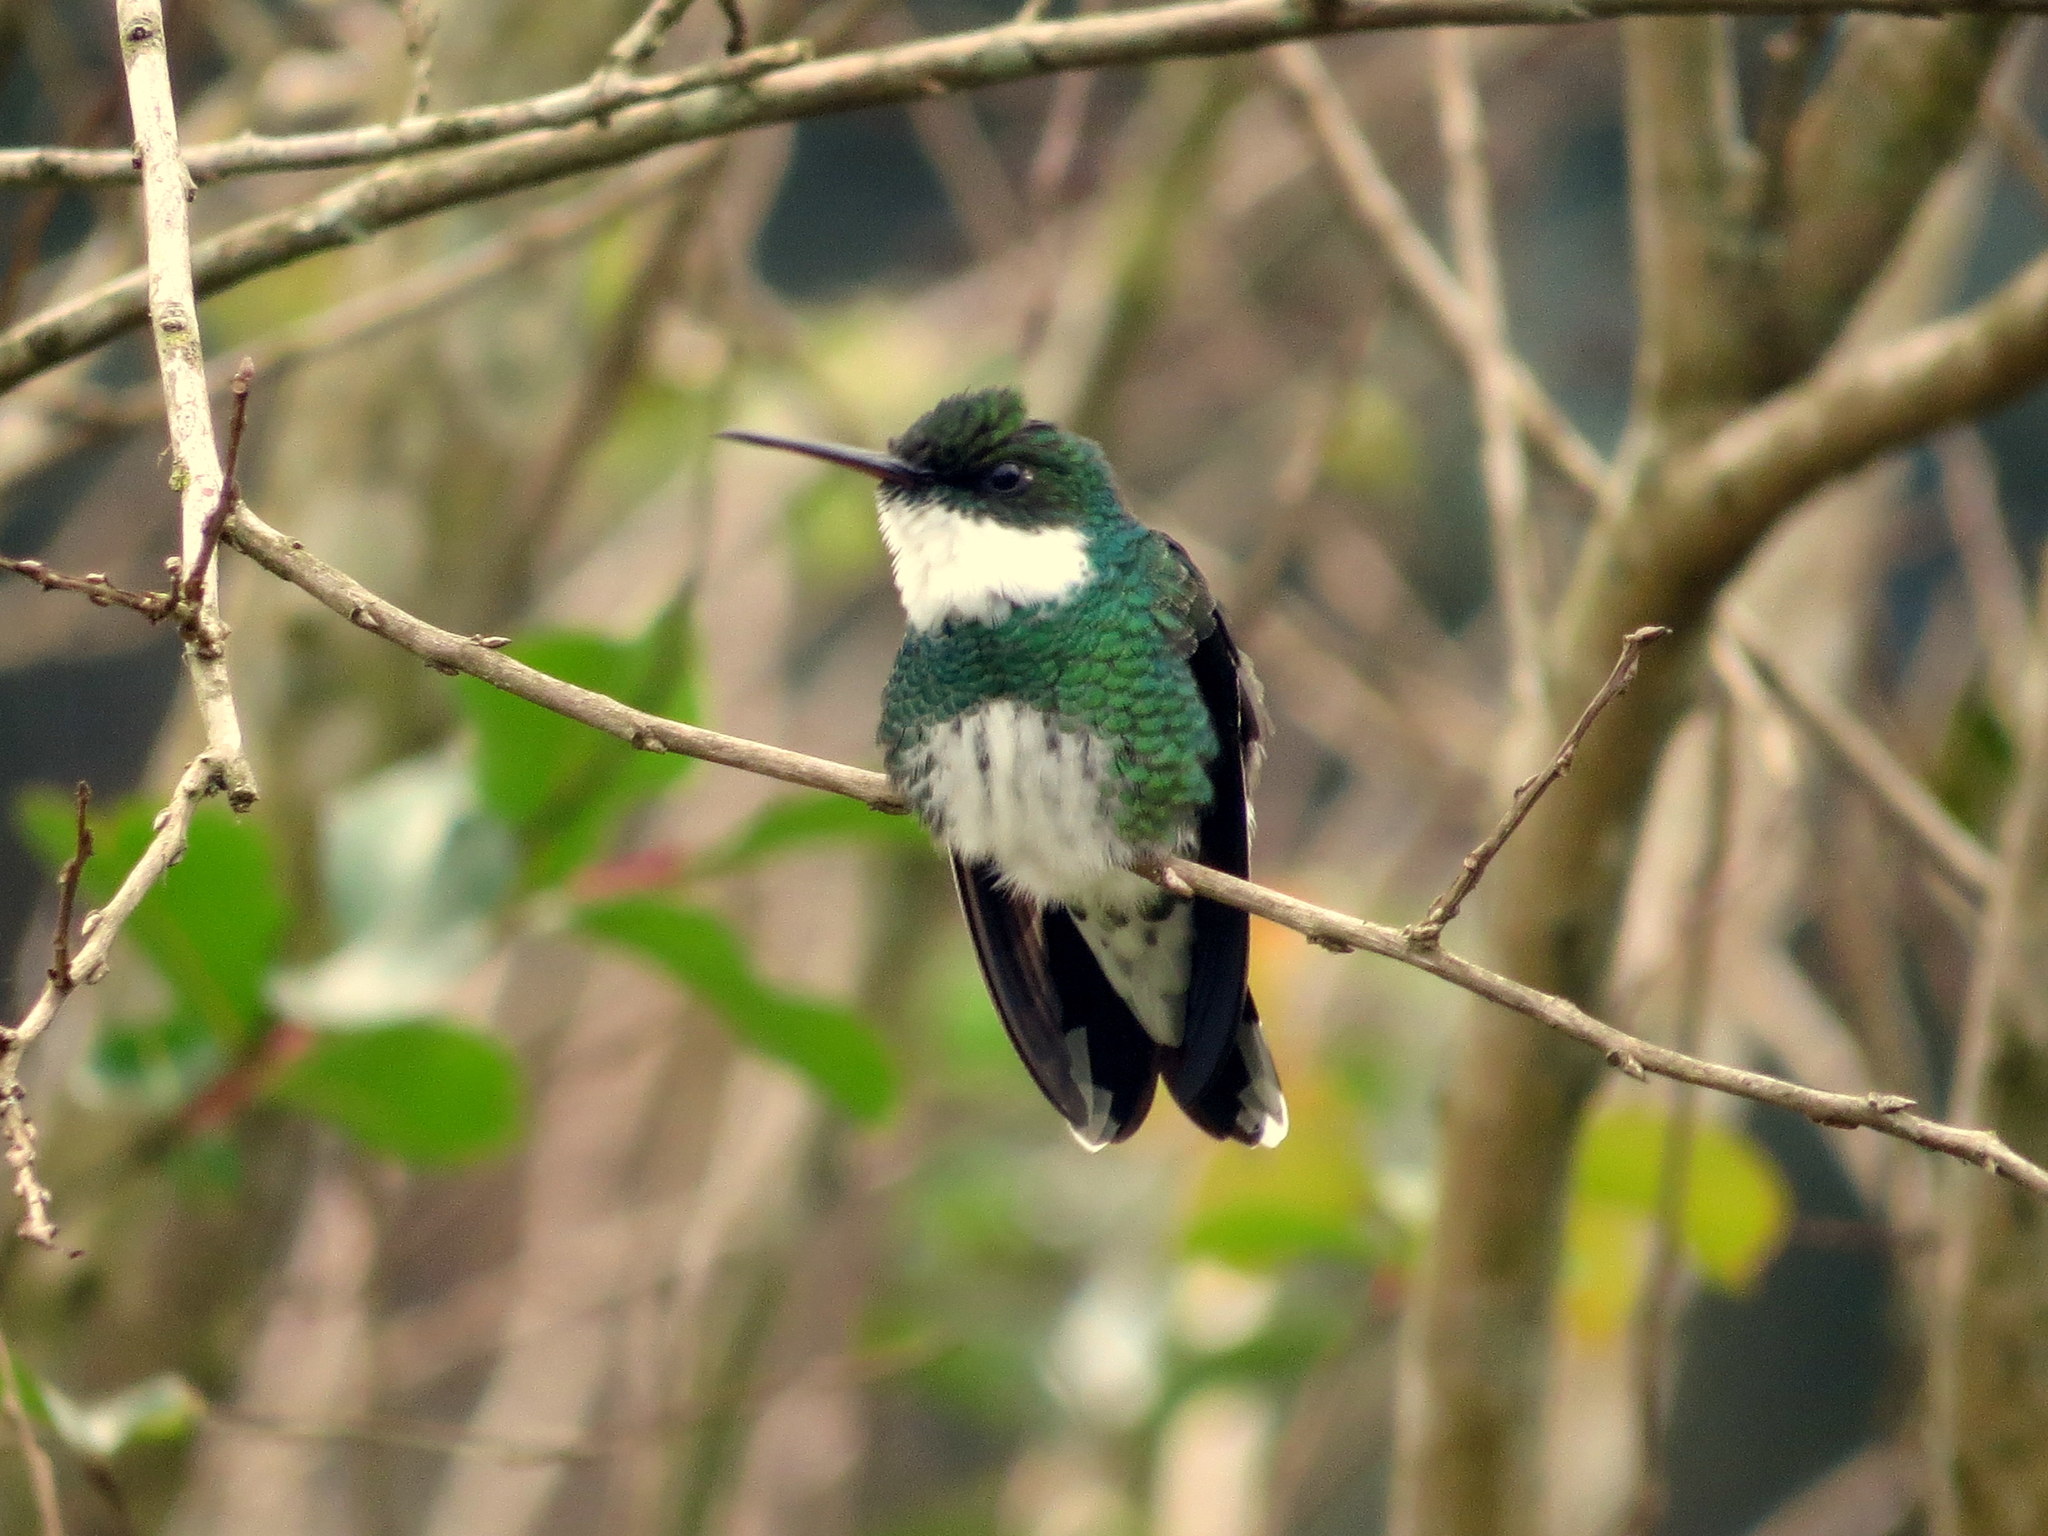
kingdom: Animalia
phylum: Chordata
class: Aves
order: Apodiformes
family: Trochilidae
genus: Leucochloris
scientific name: Leucochloris albicollis
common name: White-throated hummingbird
